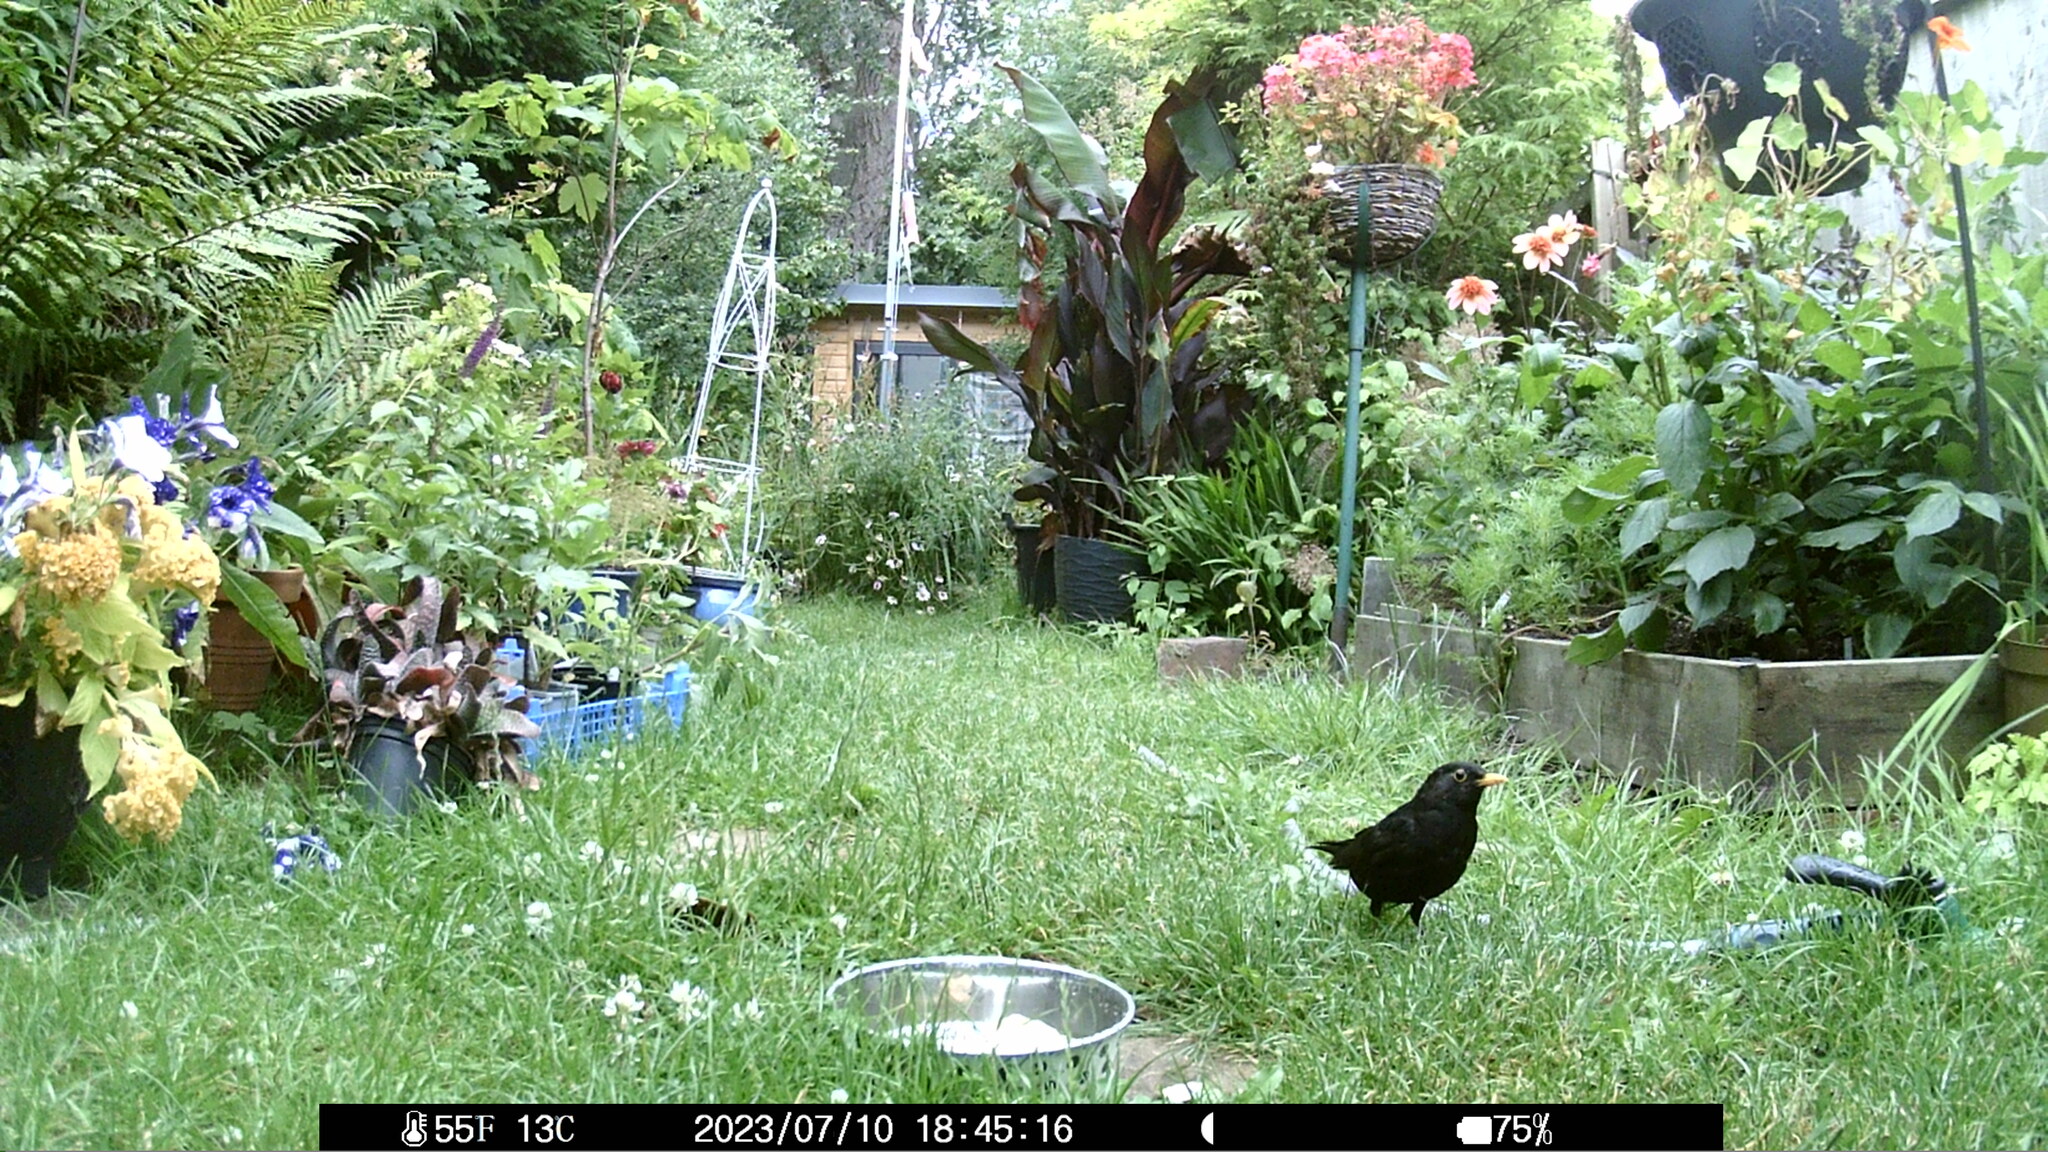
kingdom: Animalia
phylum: Chordata
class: Aves
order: Passeriformes
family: Turdidae
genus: Turdus
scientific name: Turdus merula
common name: Common blackbird
